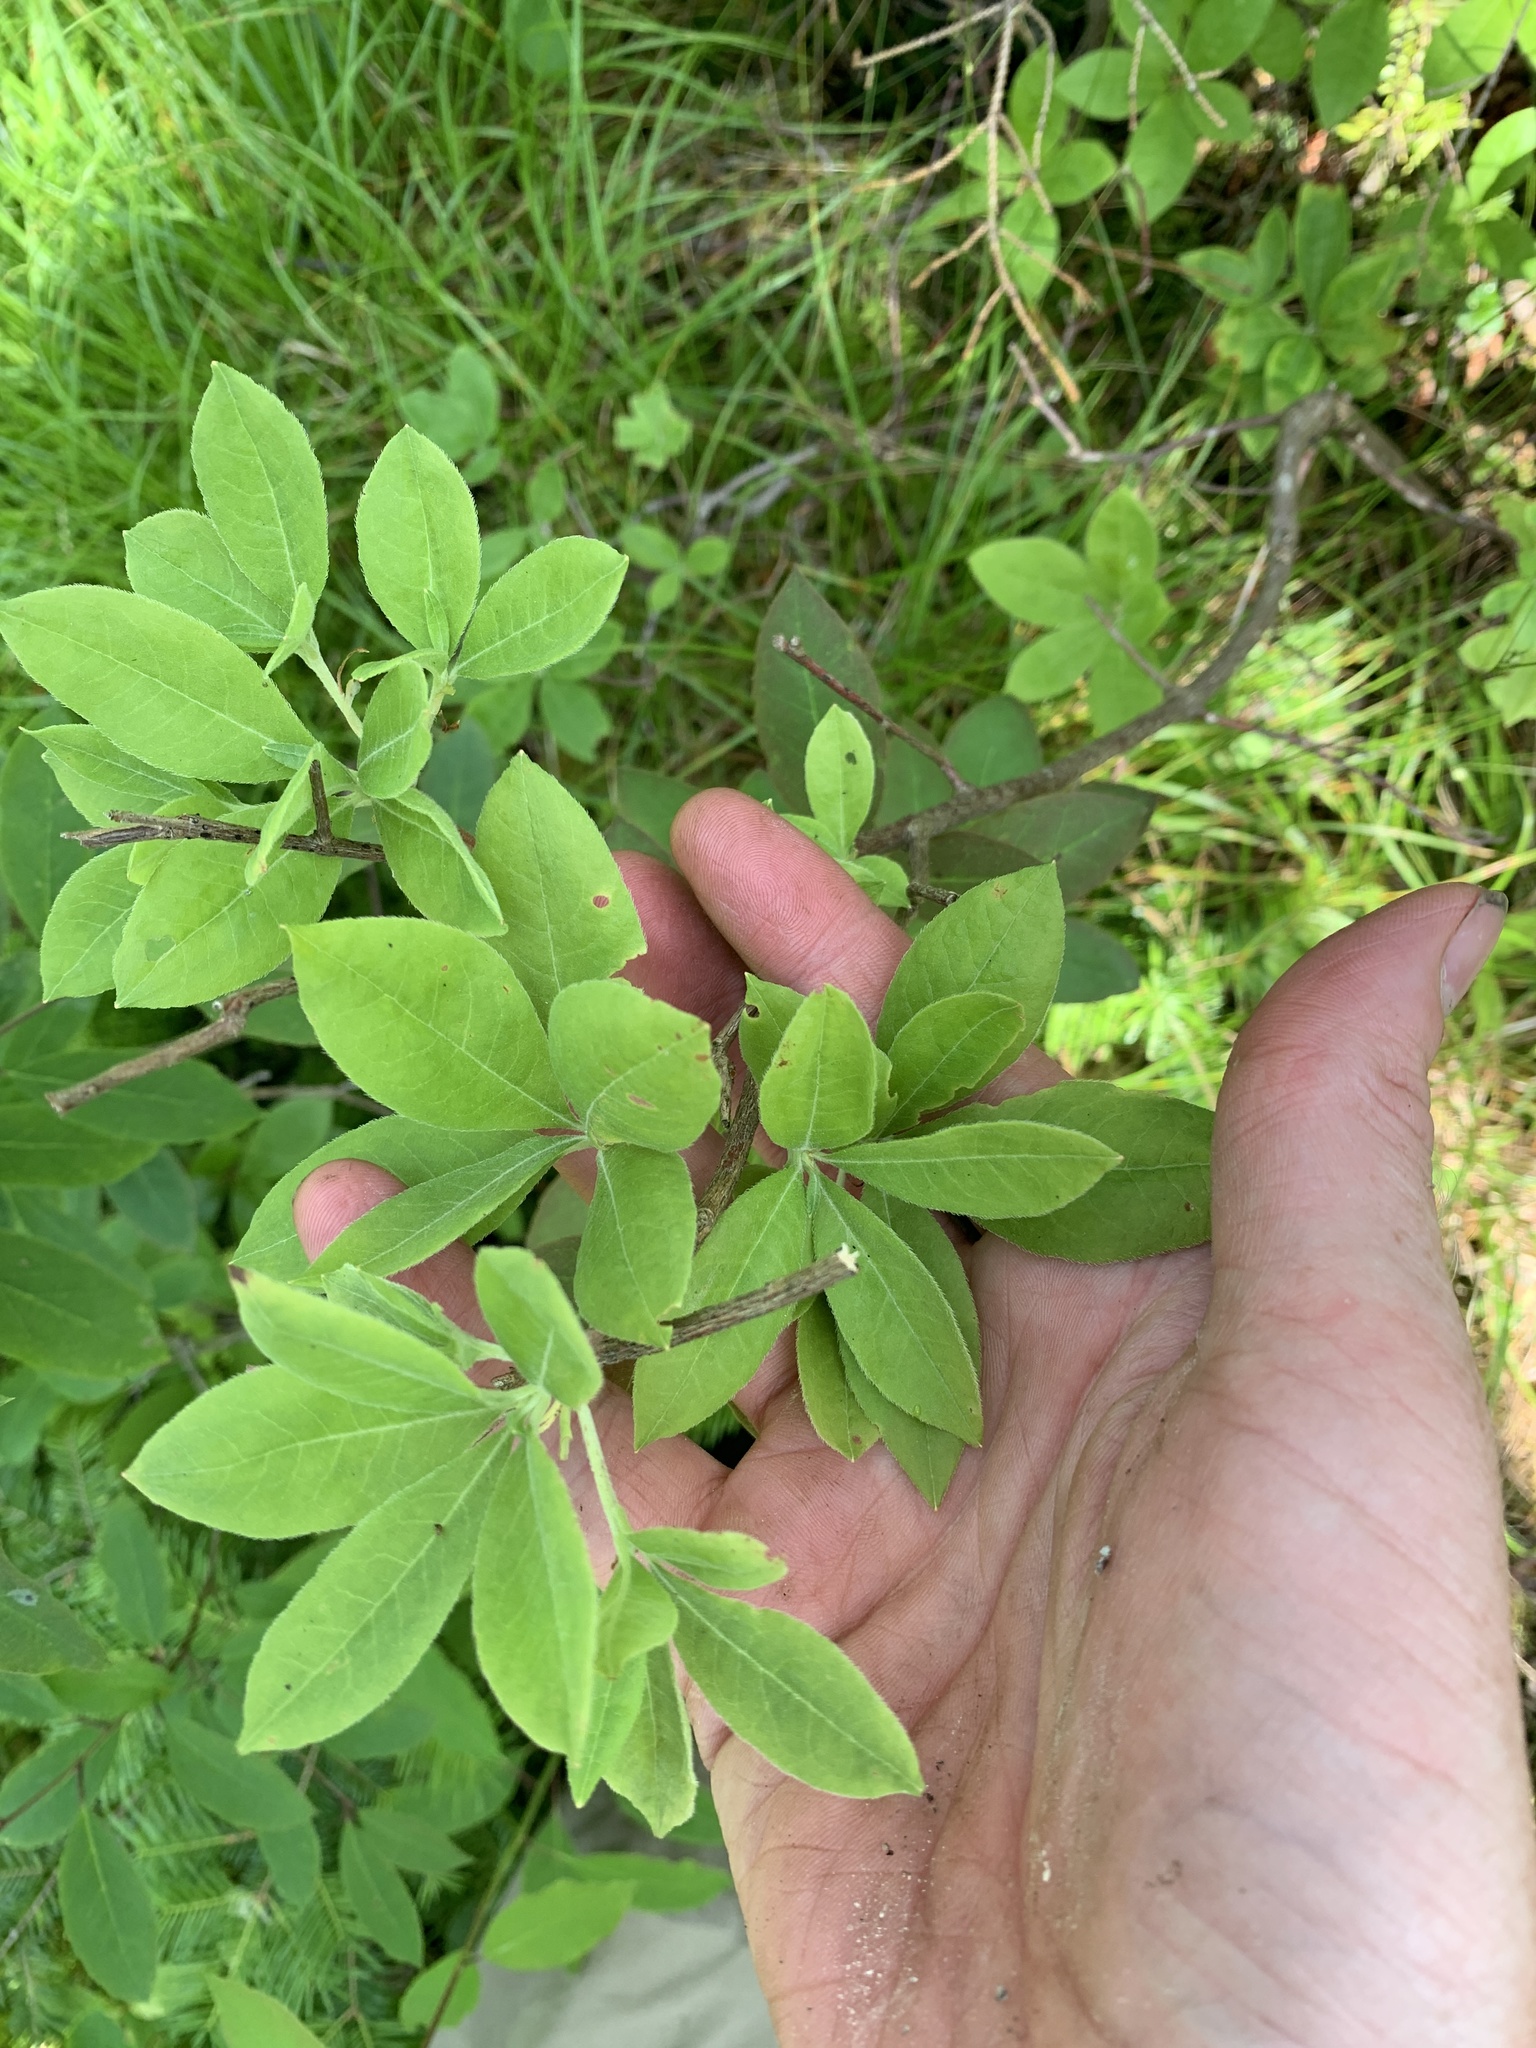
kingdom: Plantae
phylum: Tracheophyta
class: Magnoliopsida
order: Ericales
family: Ericaceae
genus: Rhododendron
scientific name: Rhododendron roseum
